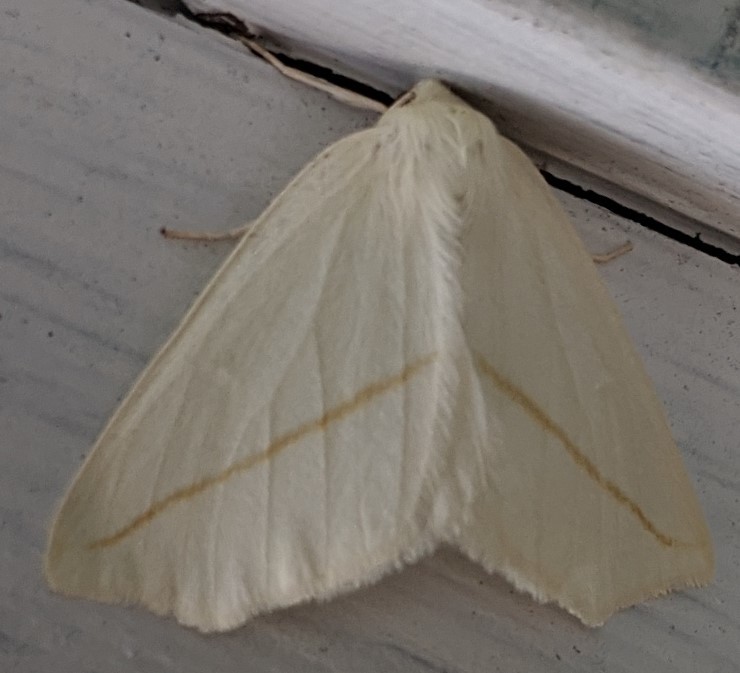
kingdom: Animalia
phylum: Arthropoda
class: Insecta
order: Lepidoptera
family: Geometridae
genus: Tetracis
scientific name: Tetracis cachexiata
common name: White slant-line
